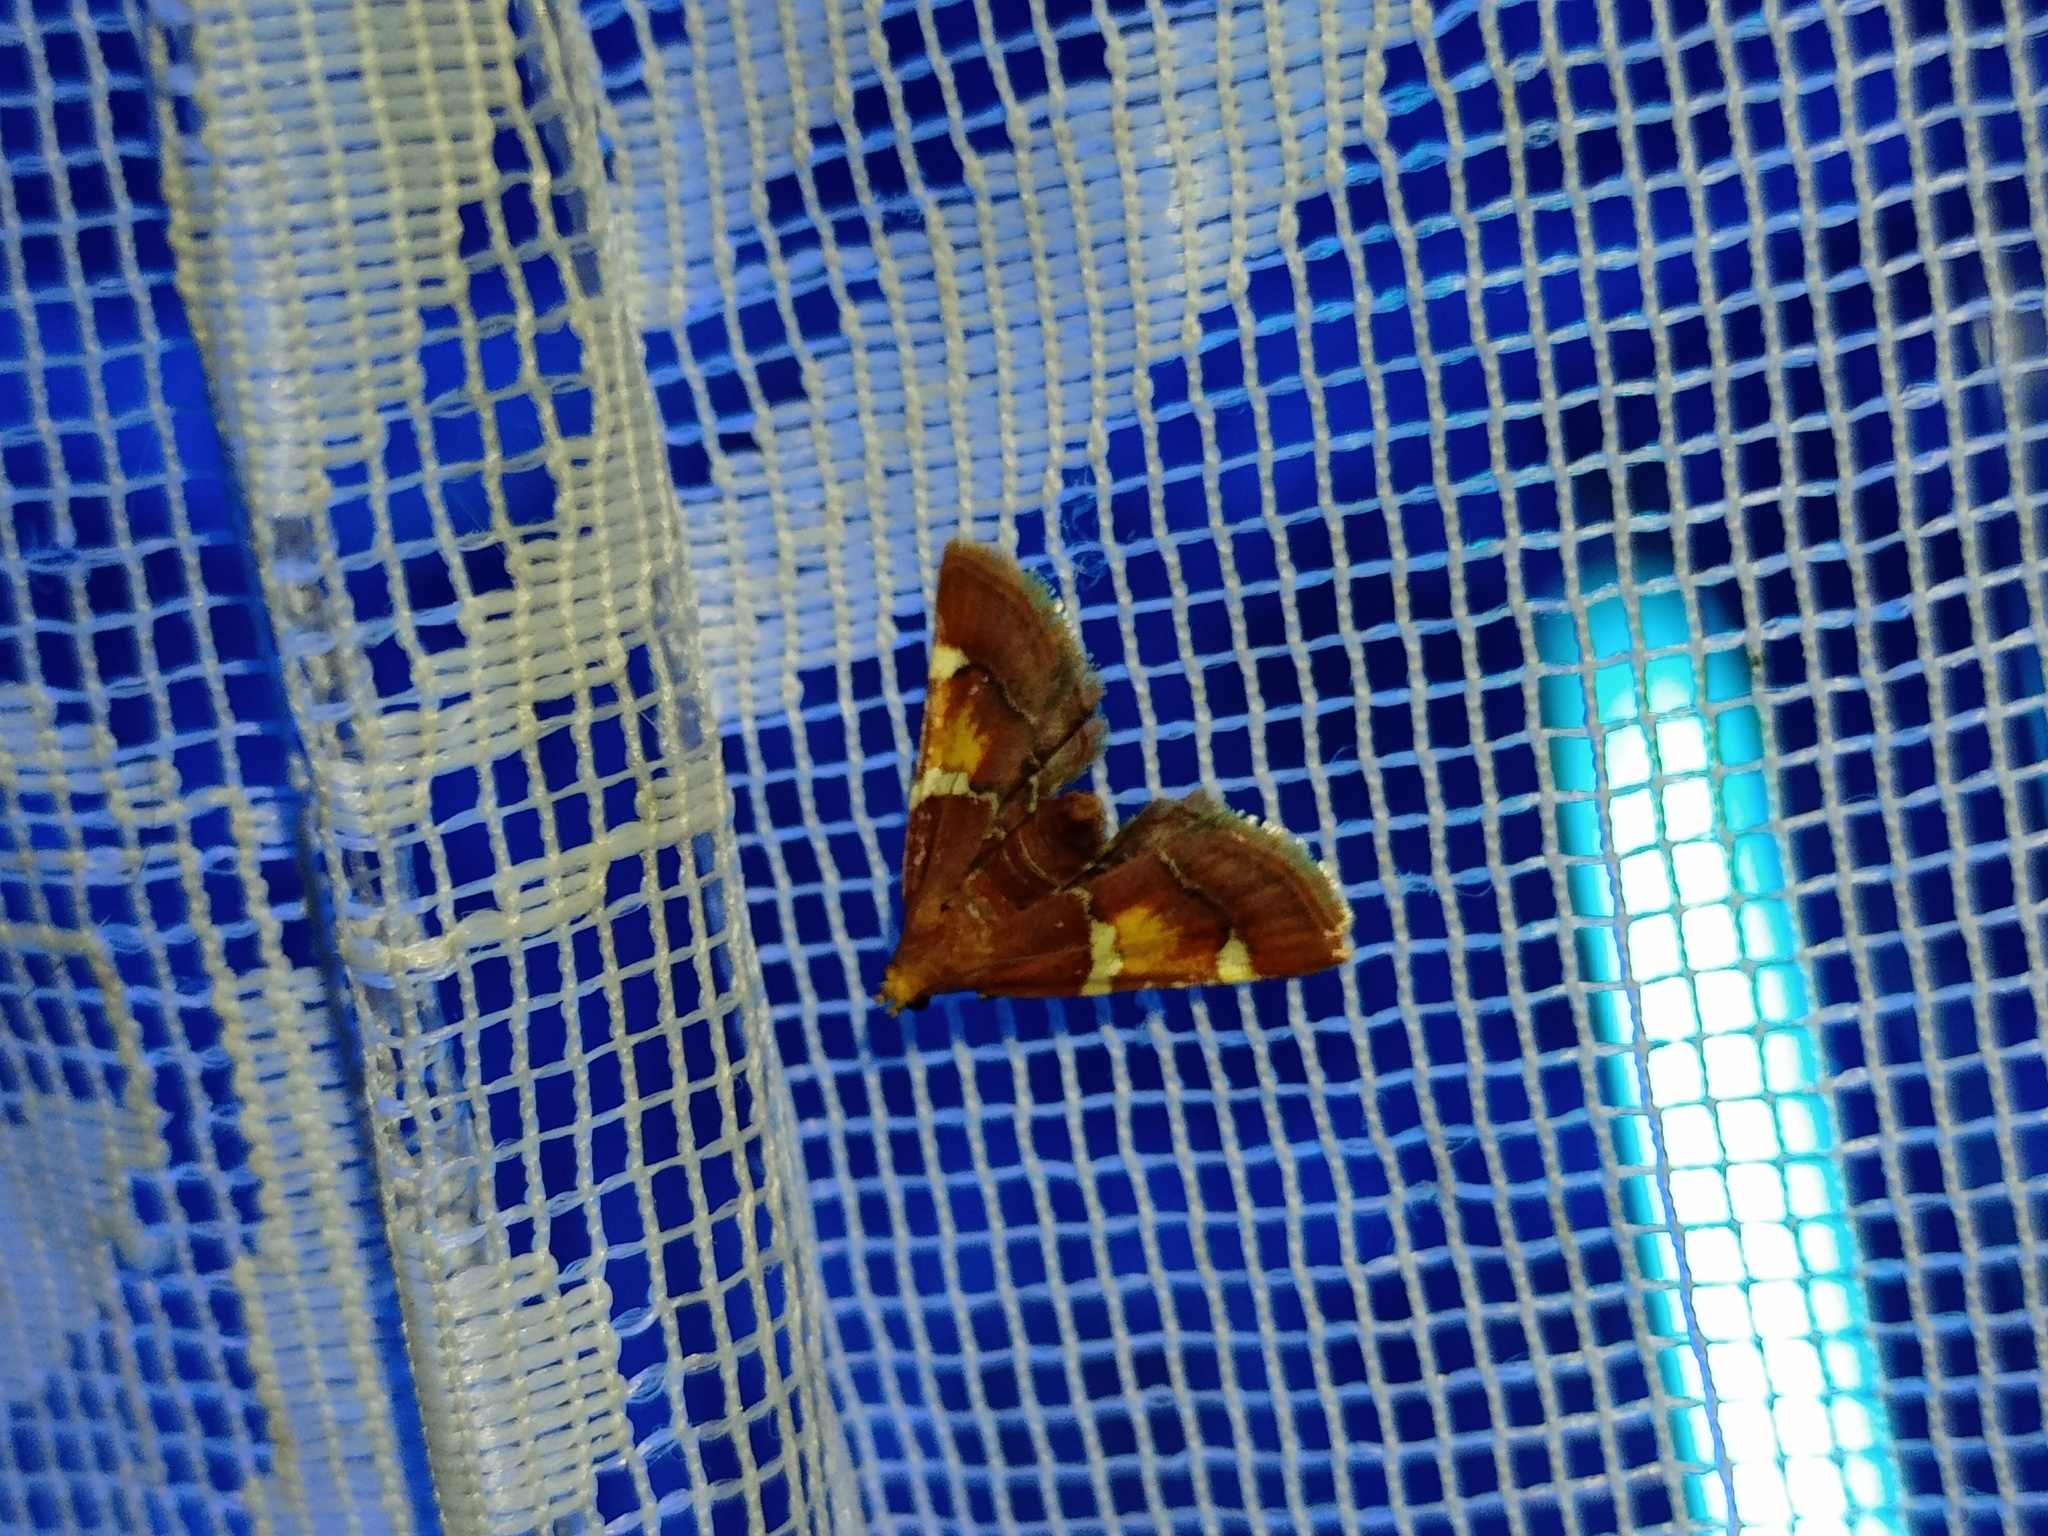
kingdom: Animalia
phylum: Arthropoda
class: Insecta
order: Lepidoptera
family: Pyralidae
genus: Pyralis
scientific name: Pyralis regalis
